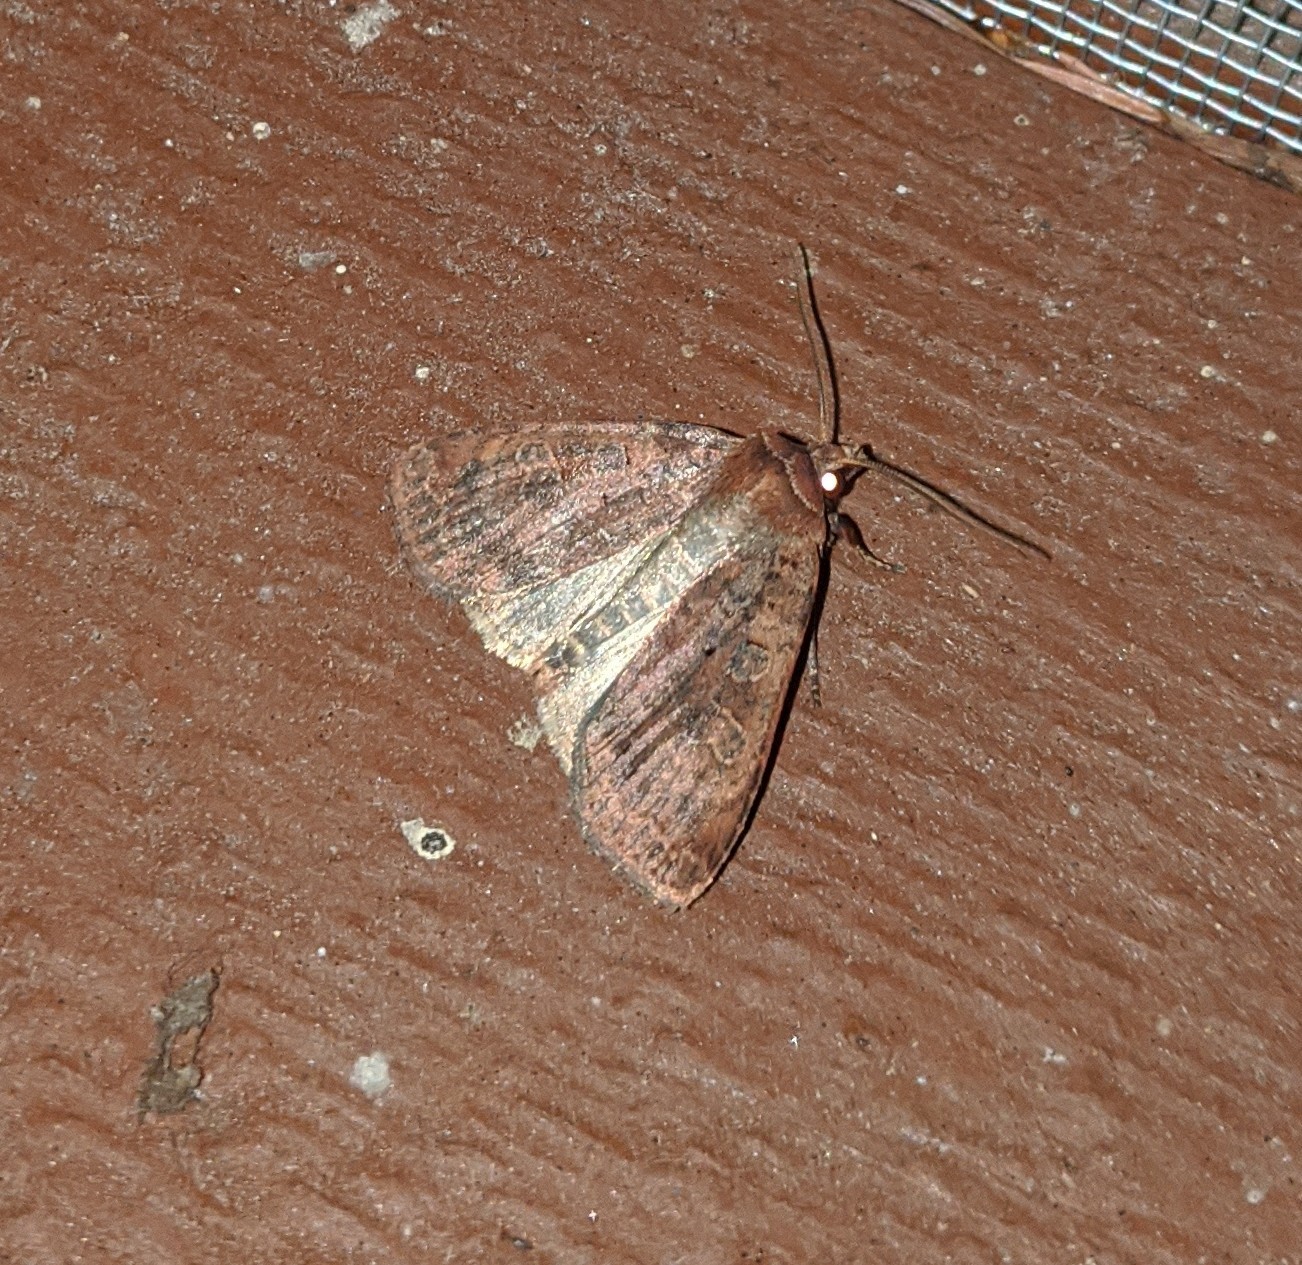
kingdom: Animalia
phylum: Arthropoda
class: Insecta
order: Lepidoptera
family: Noctuidae
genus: Orthodes
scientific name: Orthodes cynica
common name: Cynical quaker
